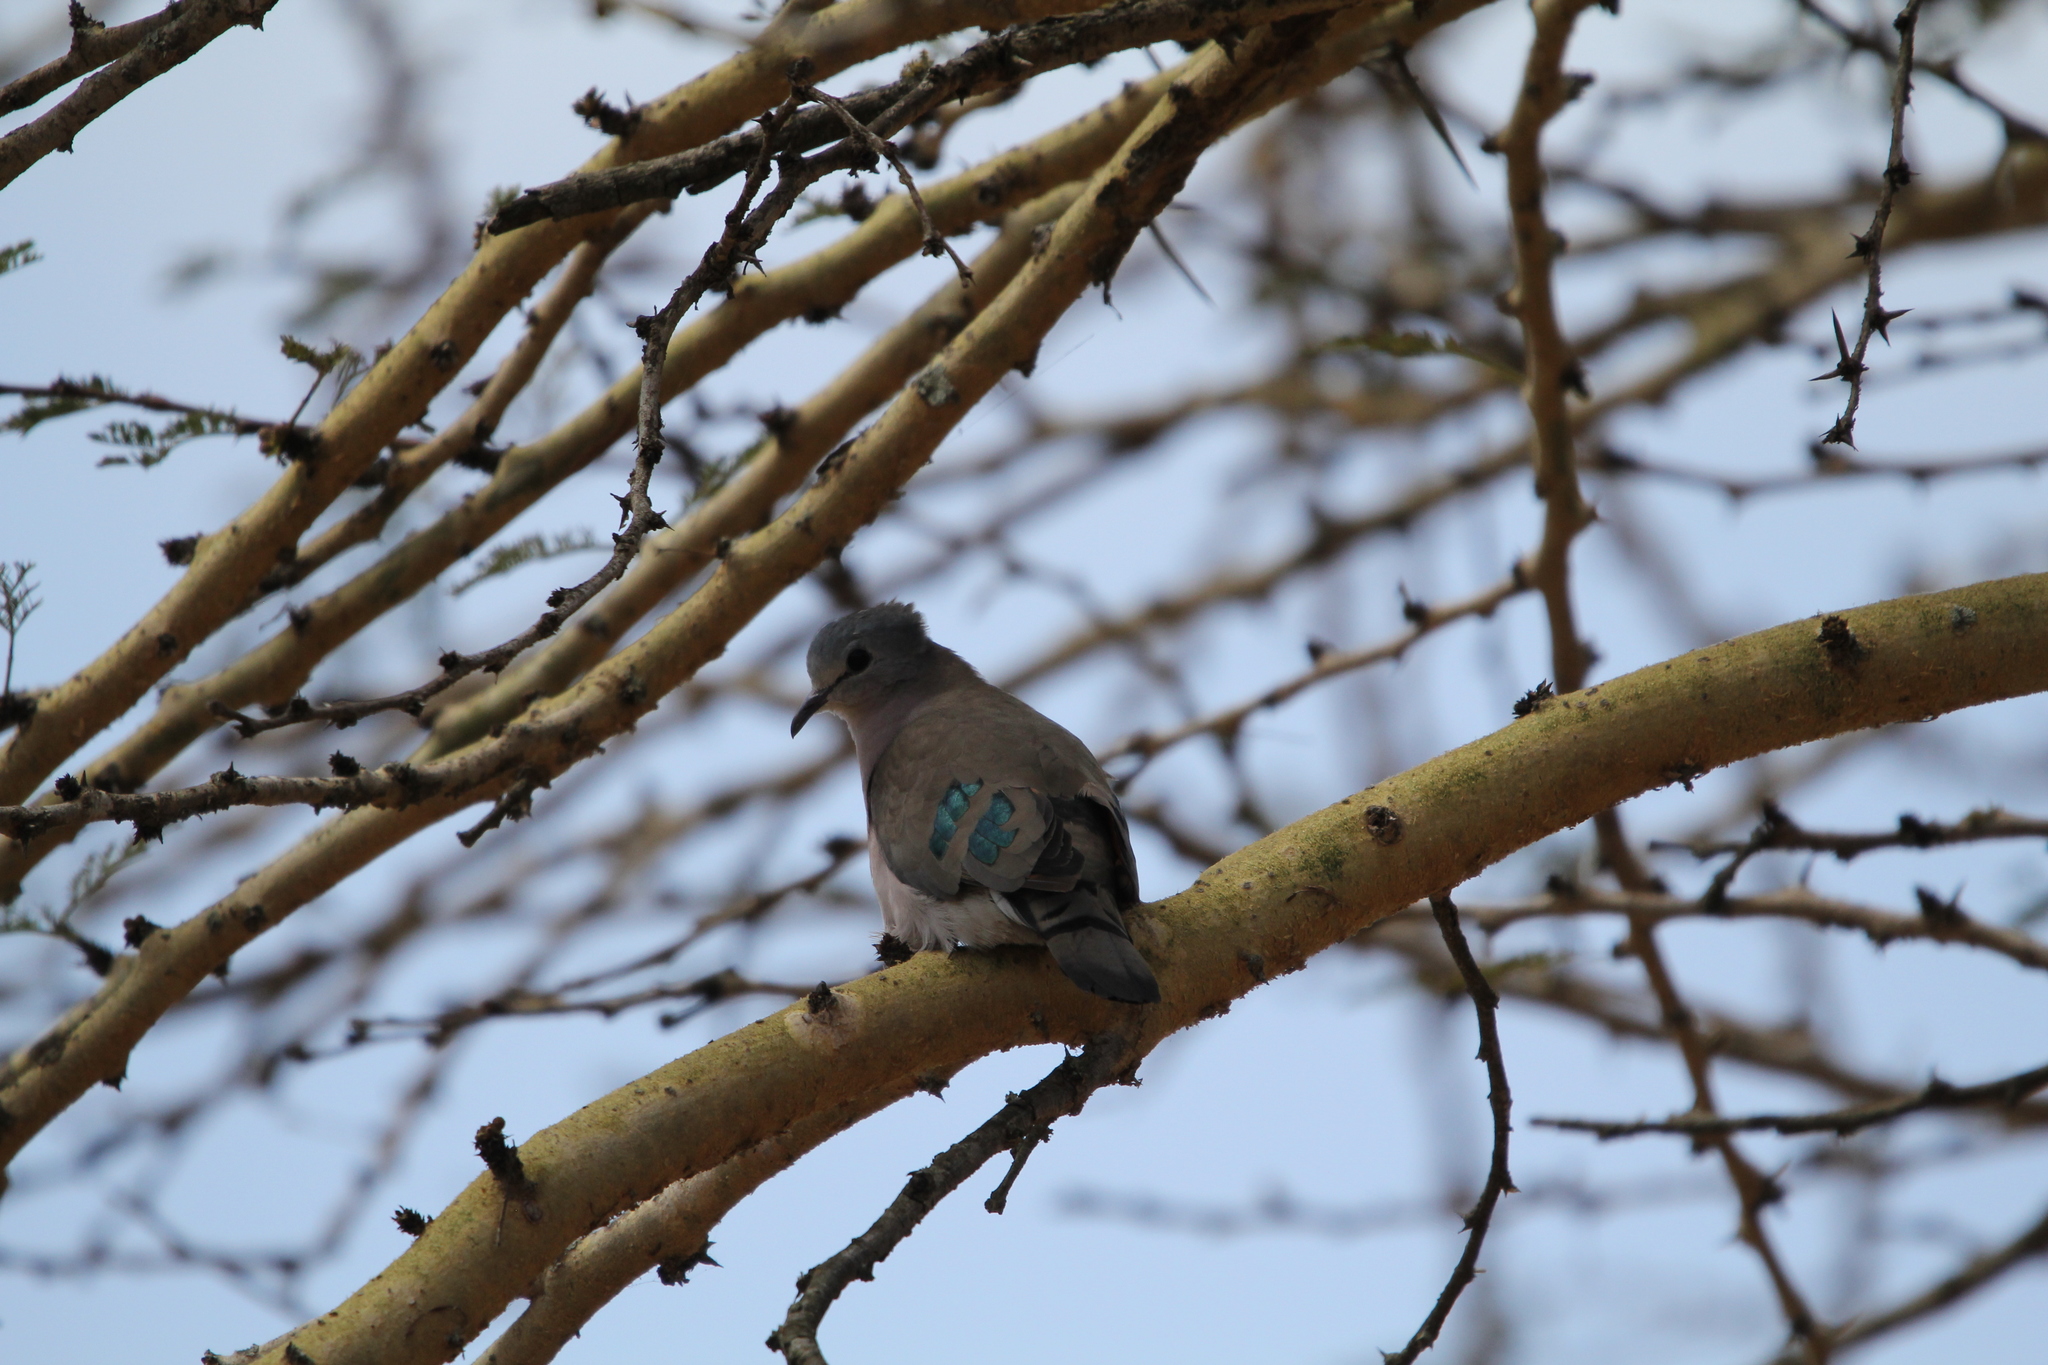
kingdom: Animalia
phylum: Chordata
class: Aves
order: Columbiformes
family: Columbidae
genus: Turtur
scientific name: Turtur chalcospilos
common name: Emerald-spotted wood dove
